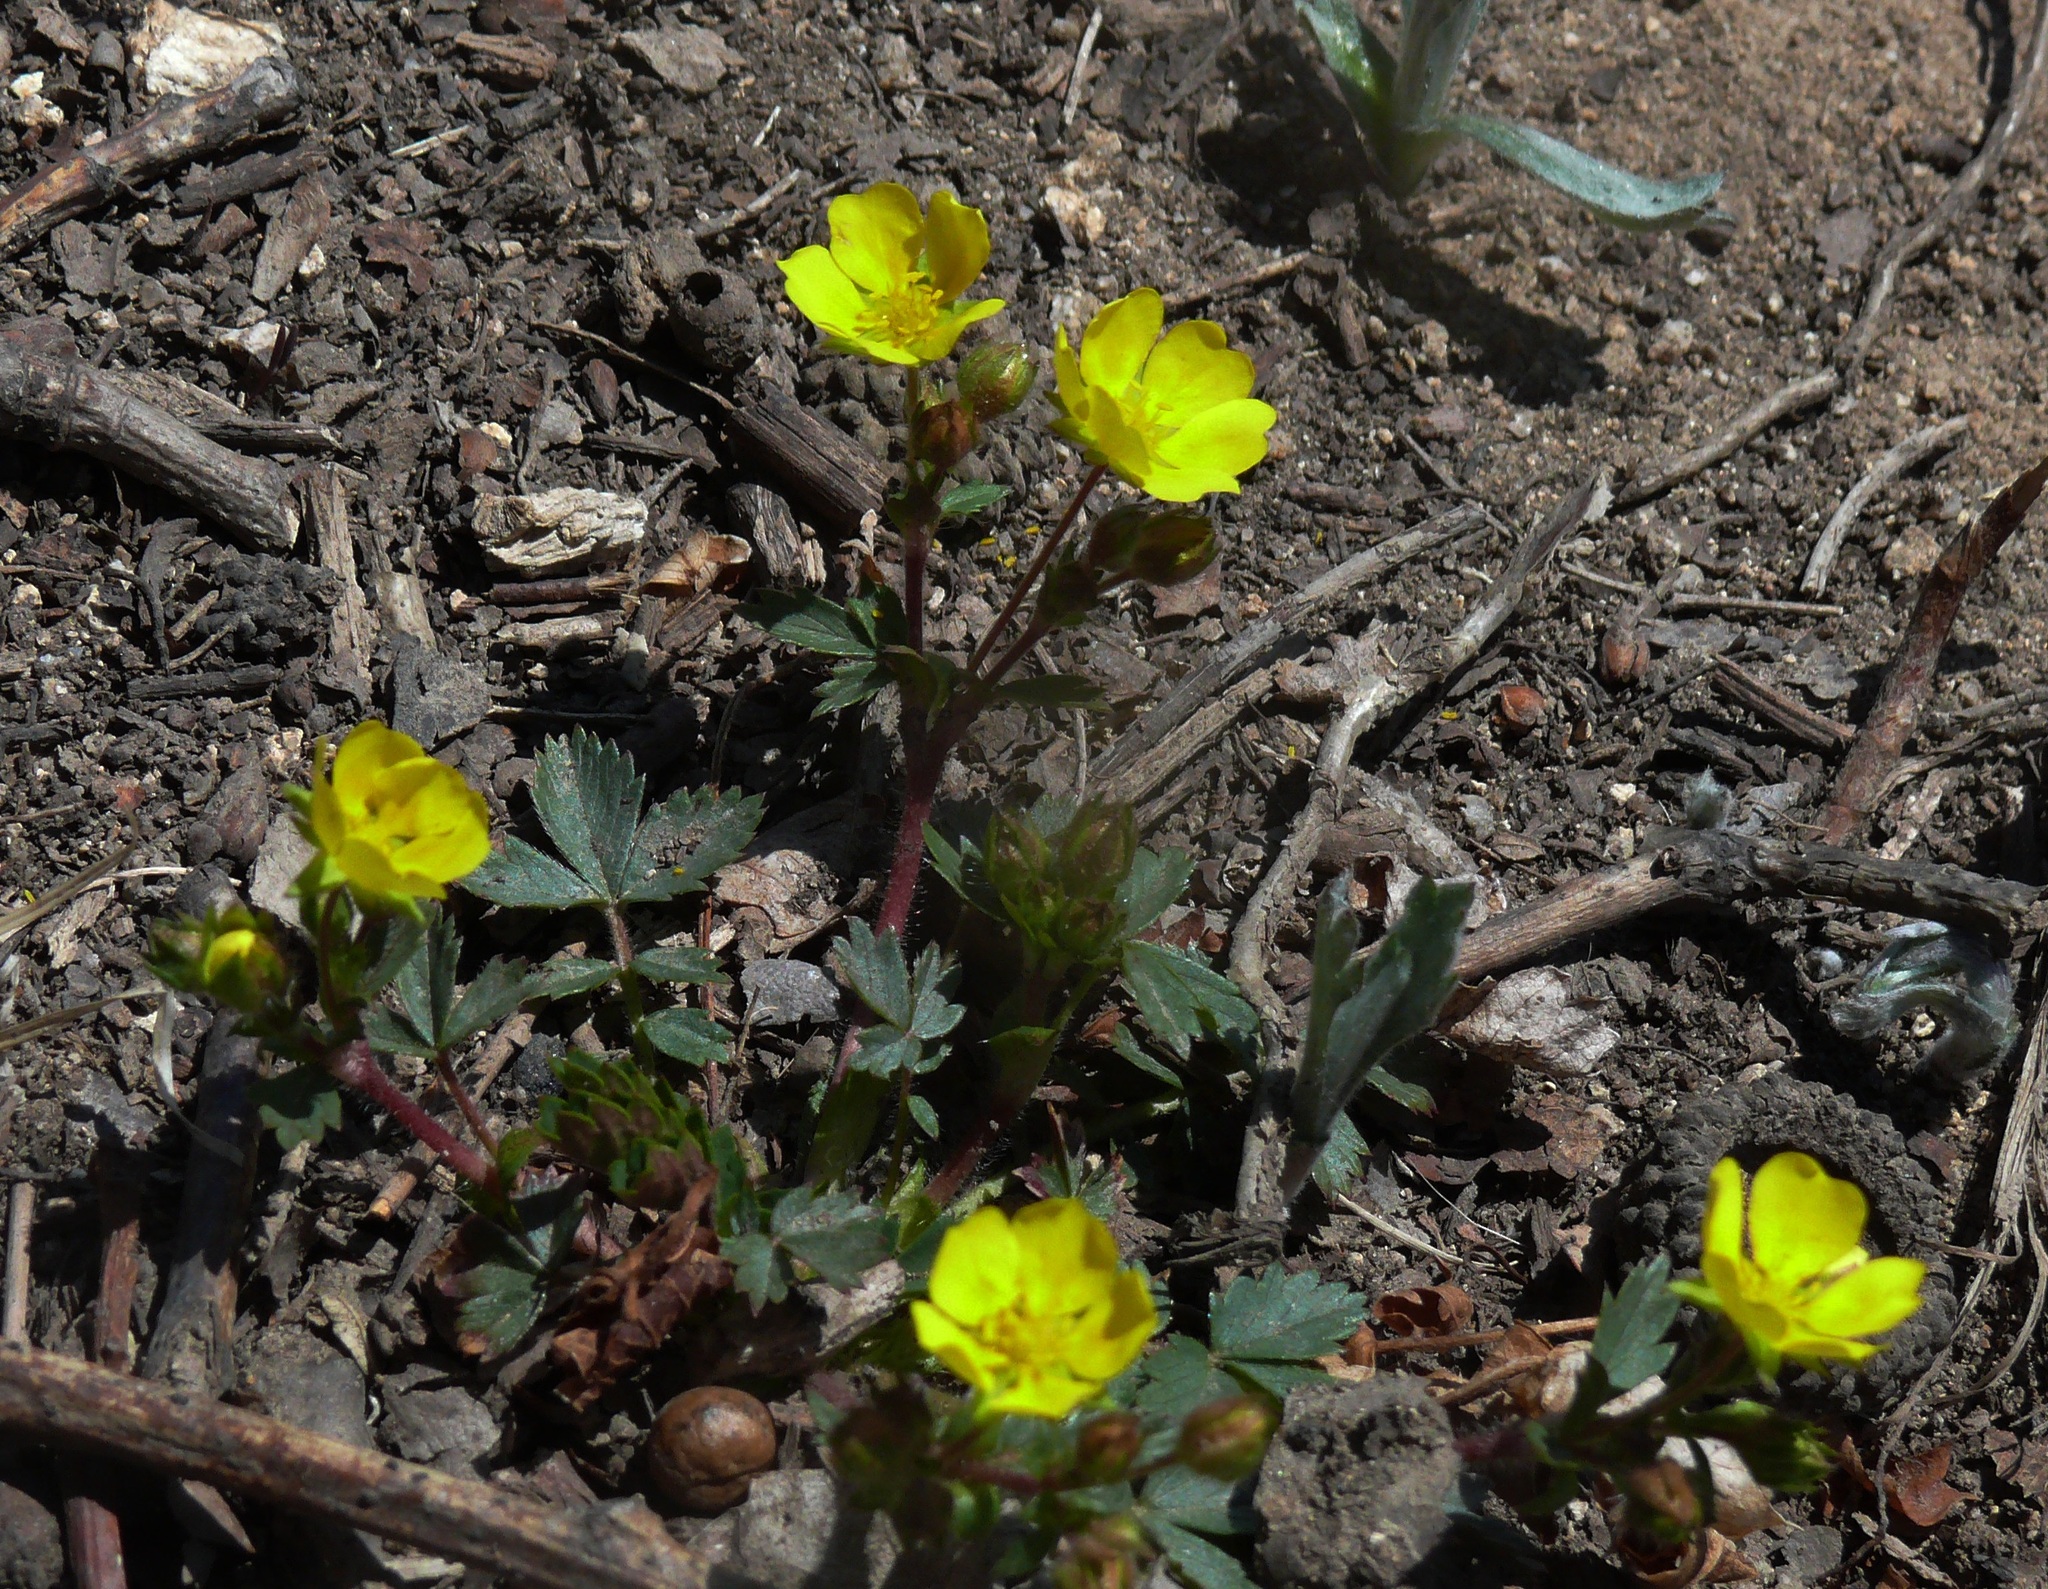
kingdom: Plantae
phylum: Tracheophyta
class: Magnoliopsida
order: Rosales
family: Rosaceae
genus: Potentilla
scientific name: Potentilla fragarioides
